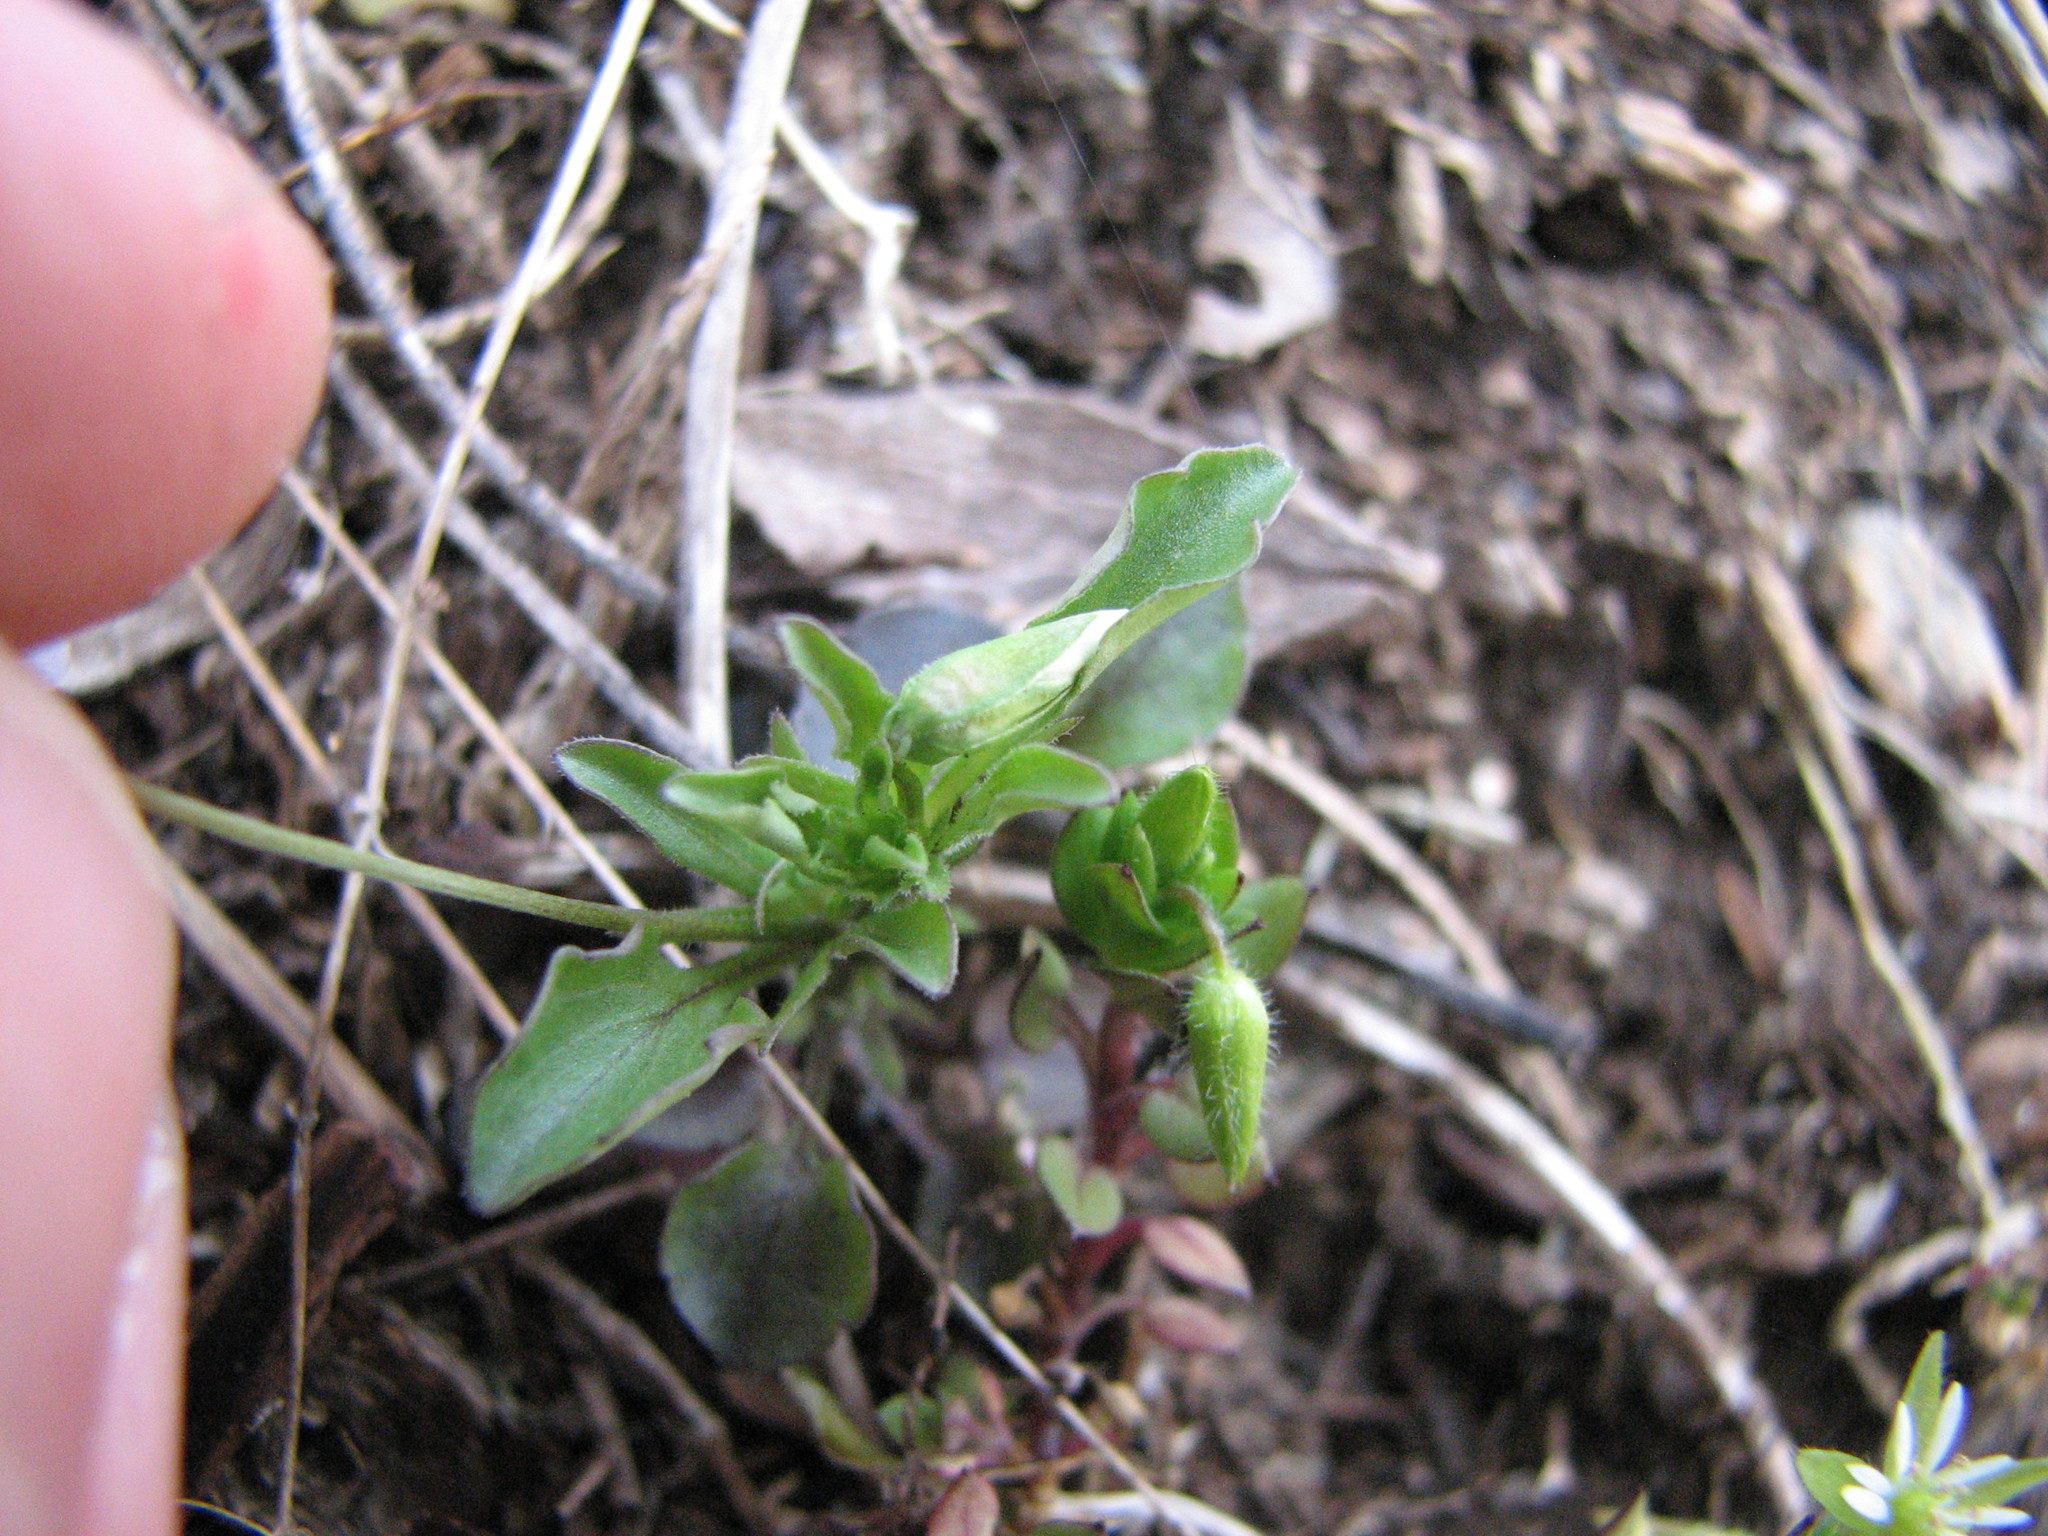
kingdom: Plantae
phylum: Tracheophyta
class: Magnoliopsida
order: Malpighiales
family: Violaceae
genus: Viola
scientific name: Viola rafinesquei
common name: American field pansy
